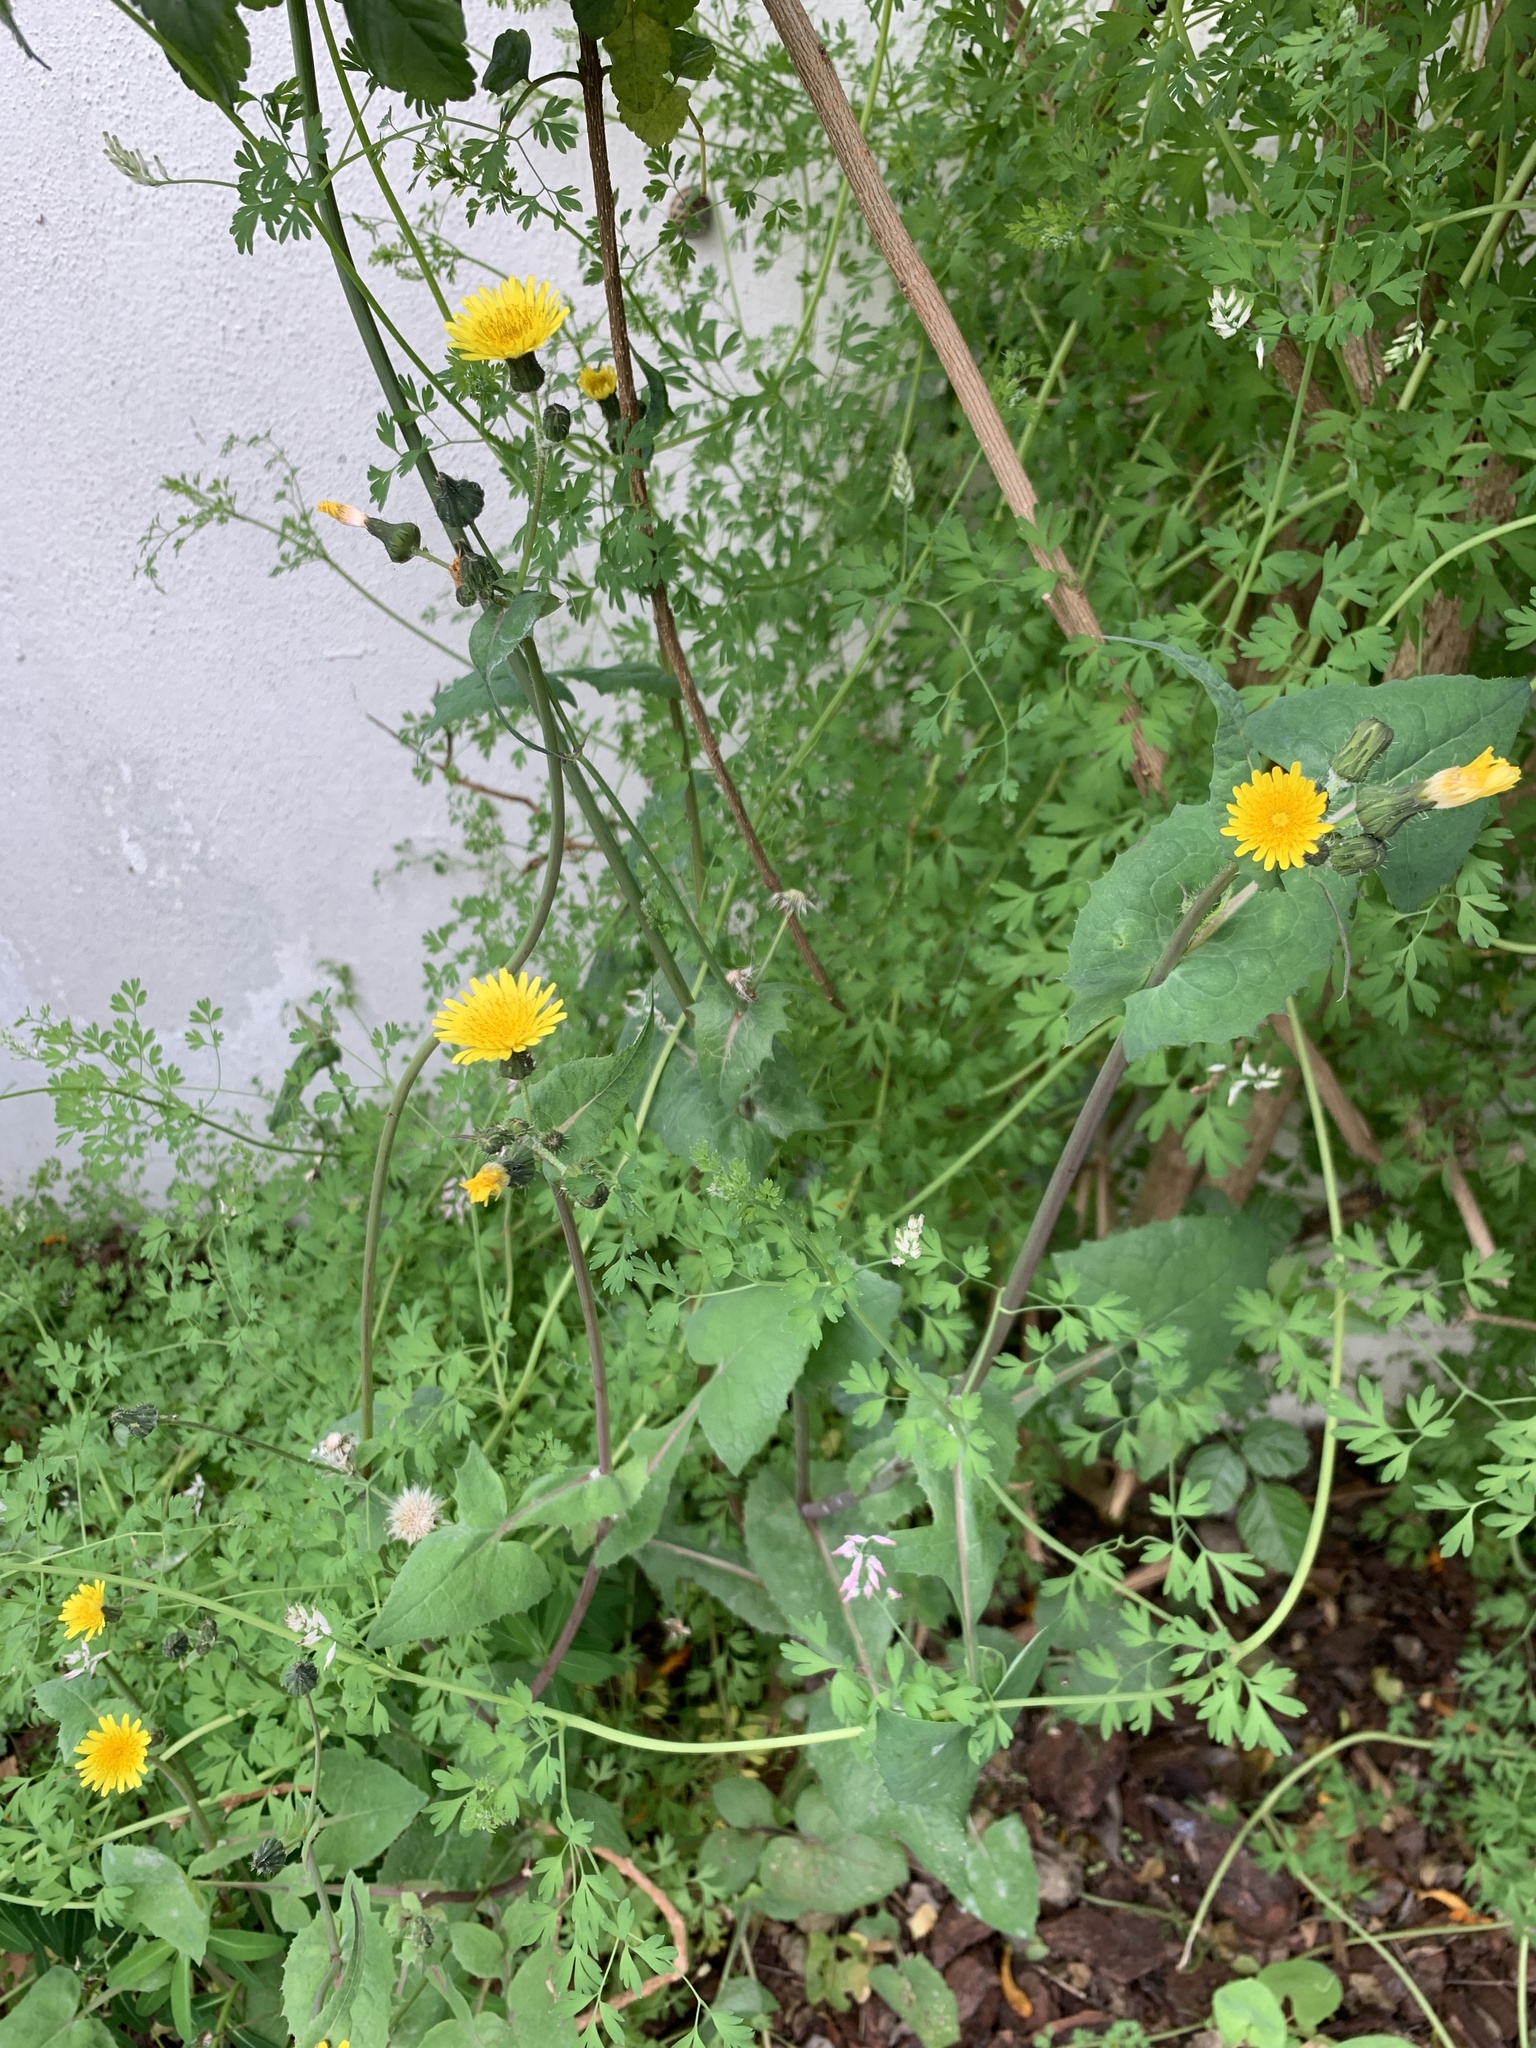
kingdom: Plantae
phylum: Tracheophyta
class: Magnoliopsida
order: Asterales
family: Asteraceae
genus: Sonchus
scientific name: Sonchus oleraceus
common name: Common sowthistle
